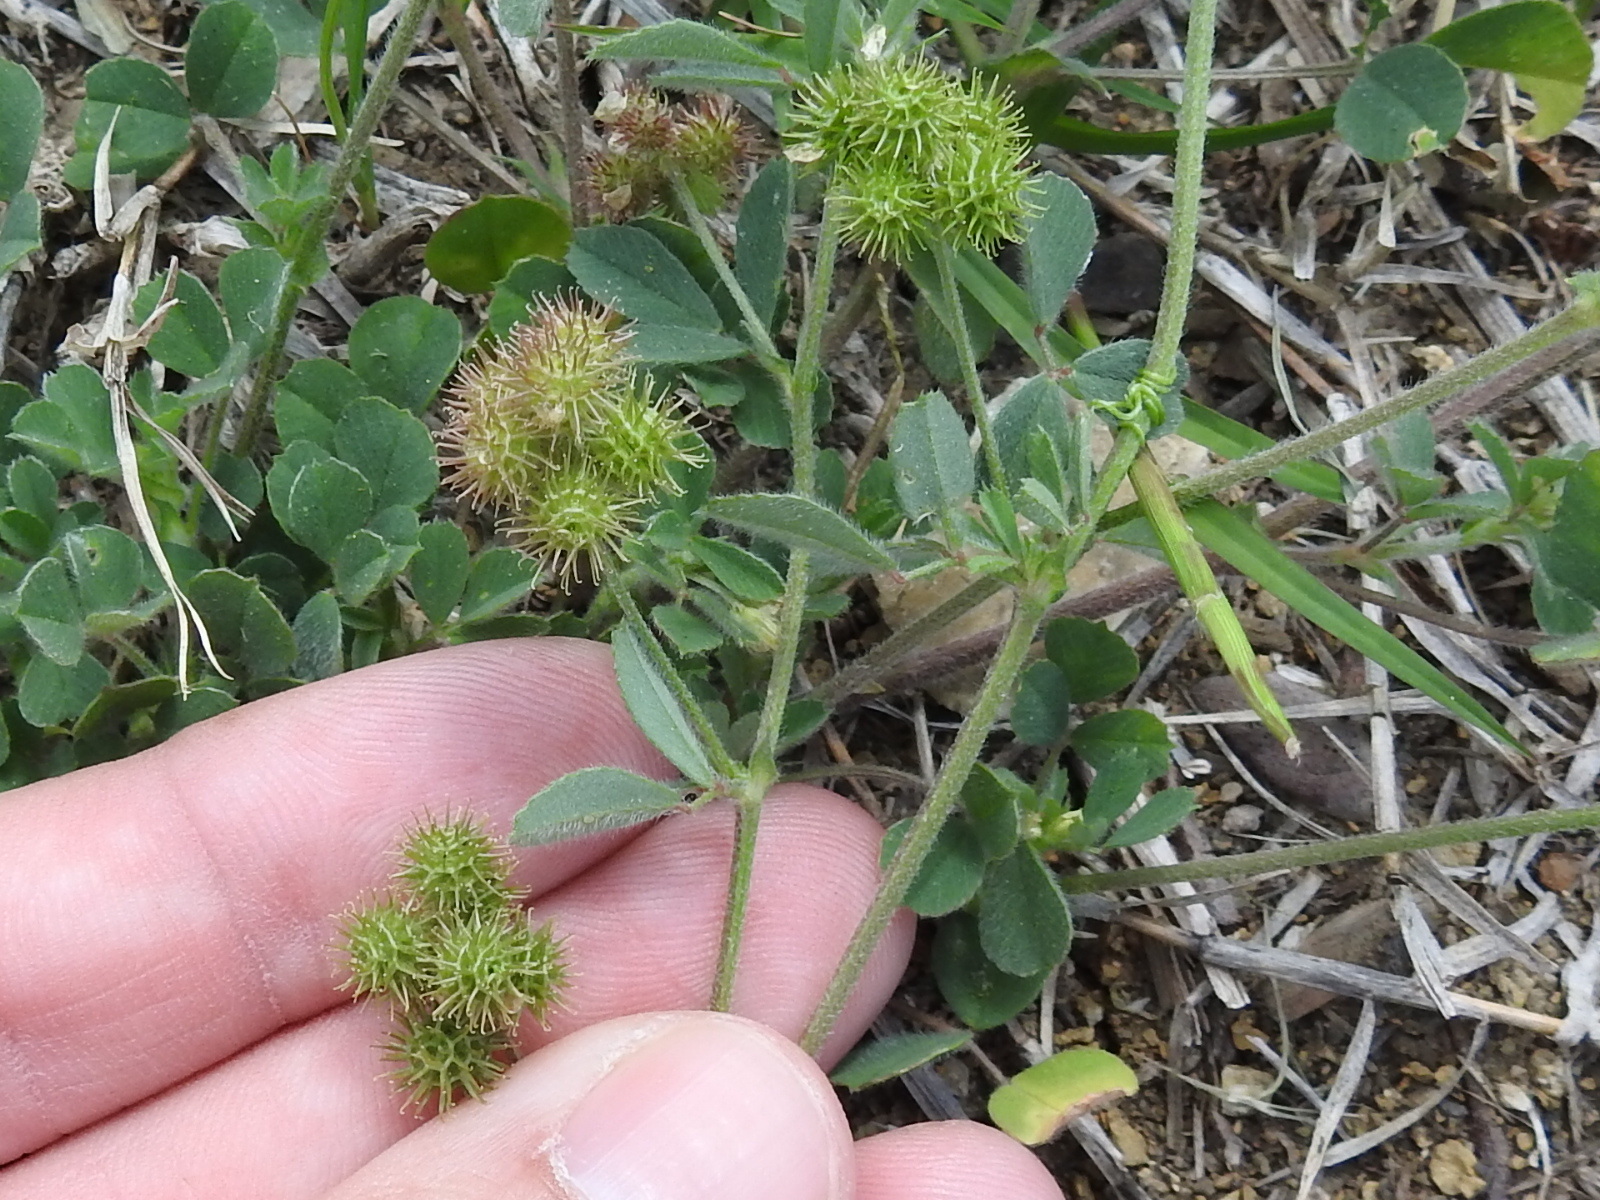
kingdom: Plantae
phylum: Tracheophyta
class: Magnoliopsida
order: Fabales
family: Fabaceae
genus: Medicago
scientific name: Medicago minima
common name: Little bur-clover
